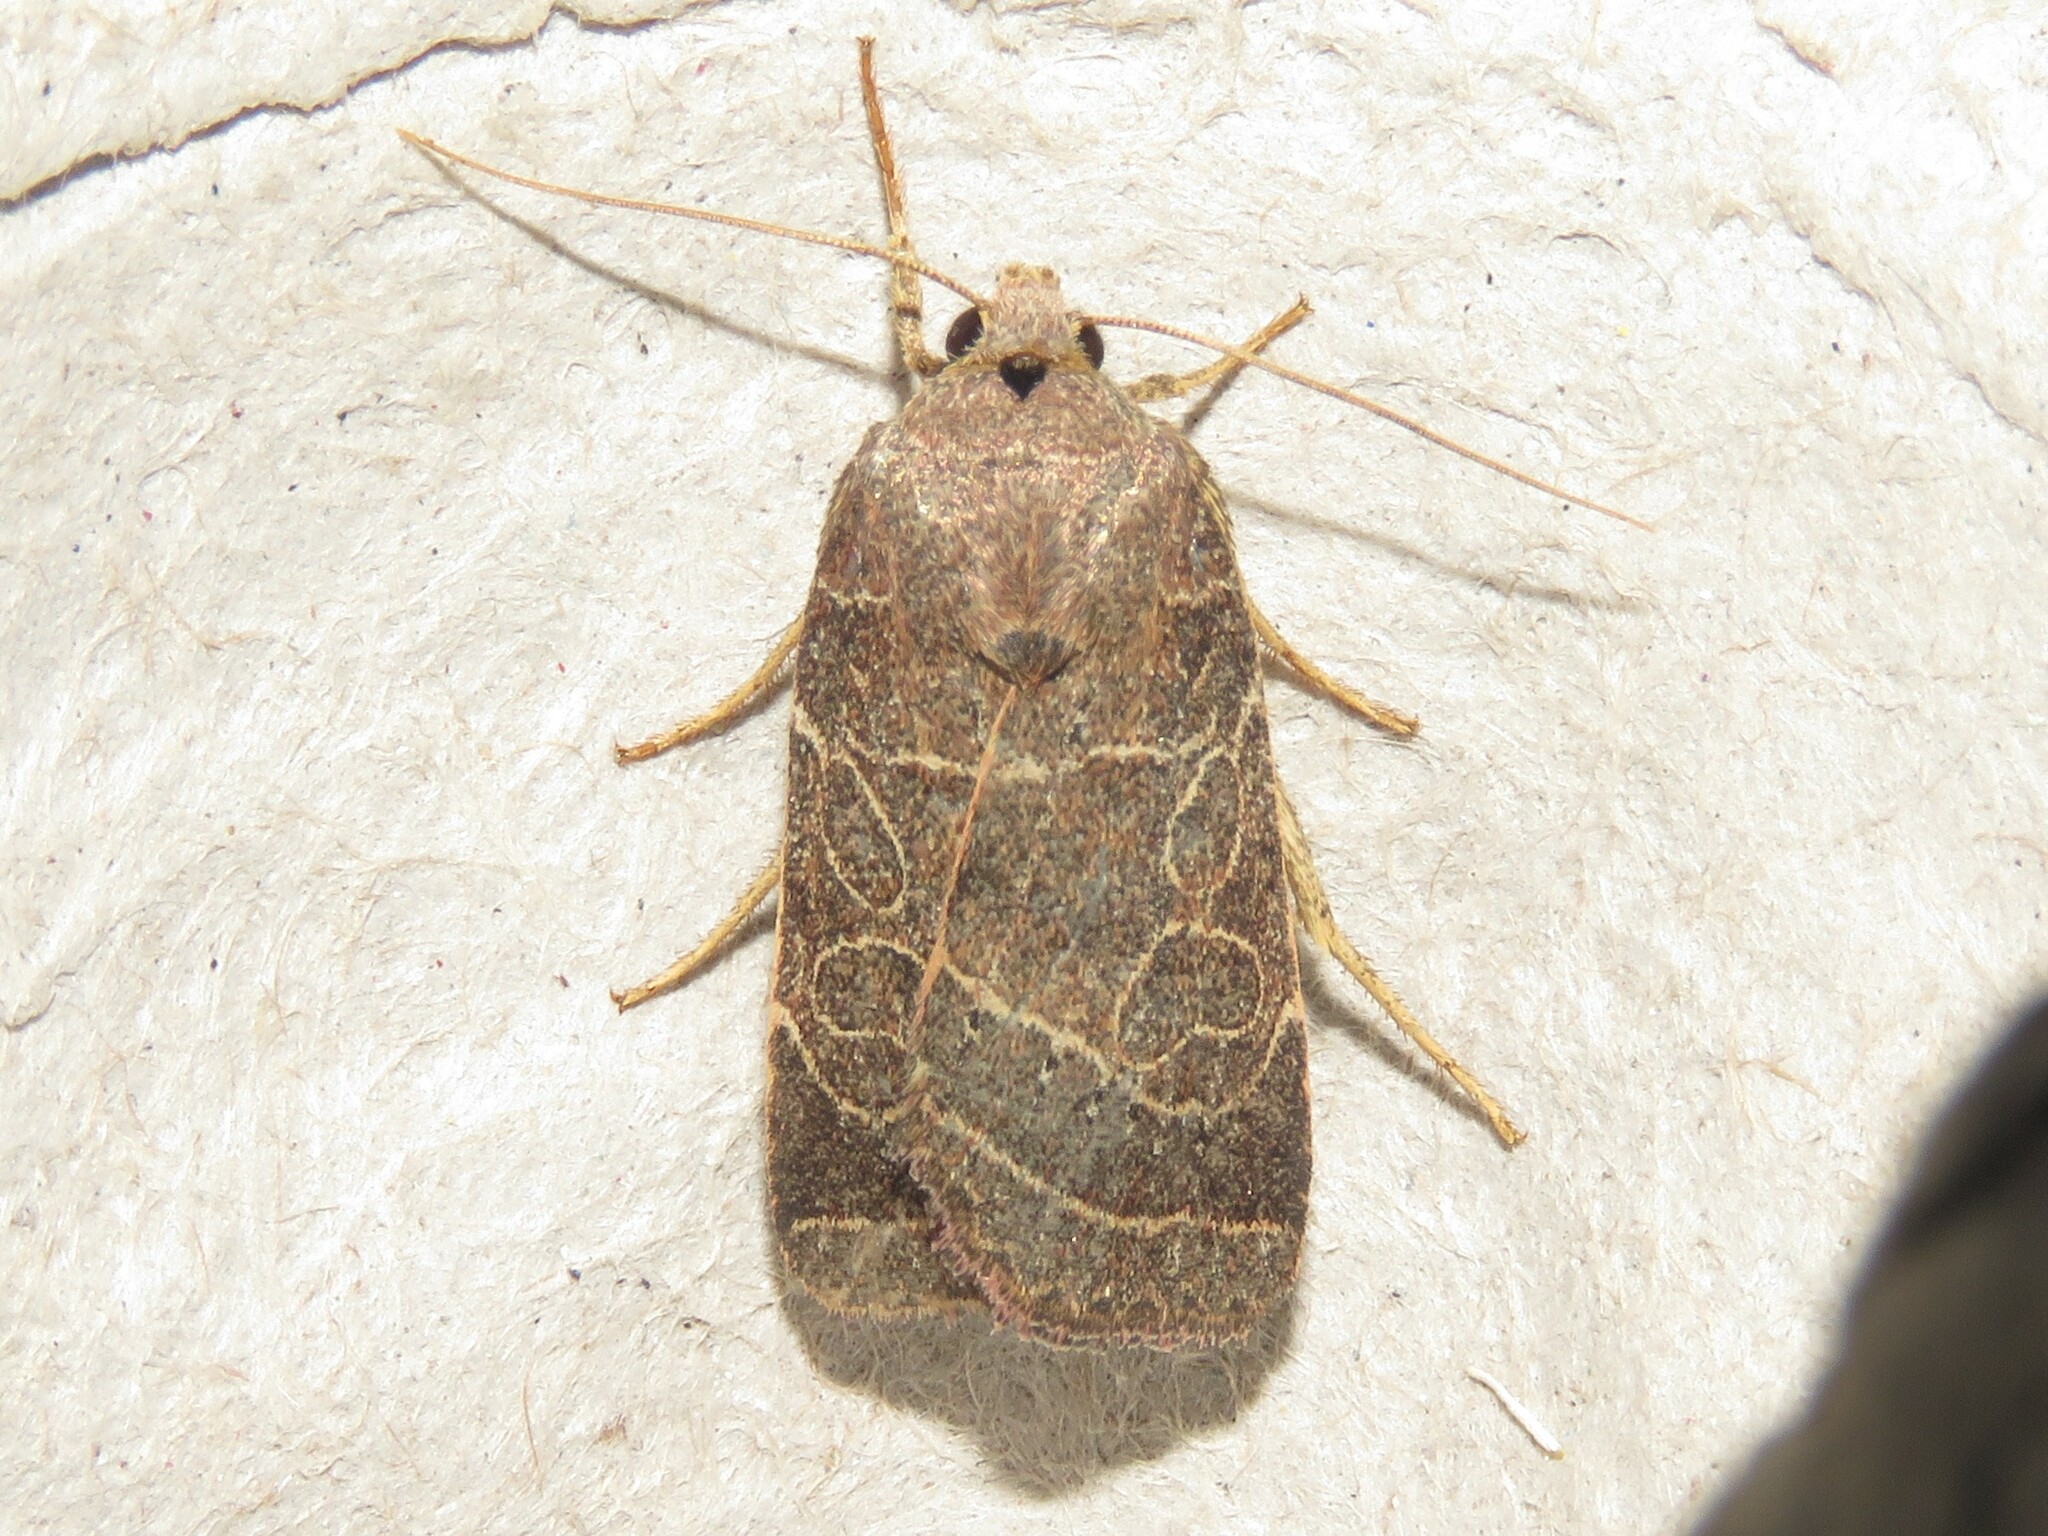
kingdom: Animalia
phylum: Arthropoda
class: Insecta
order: Lepidoptera
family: Noctuidae
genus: Orthodes
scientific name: Orthodes majuscula
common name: Rustic quaker
